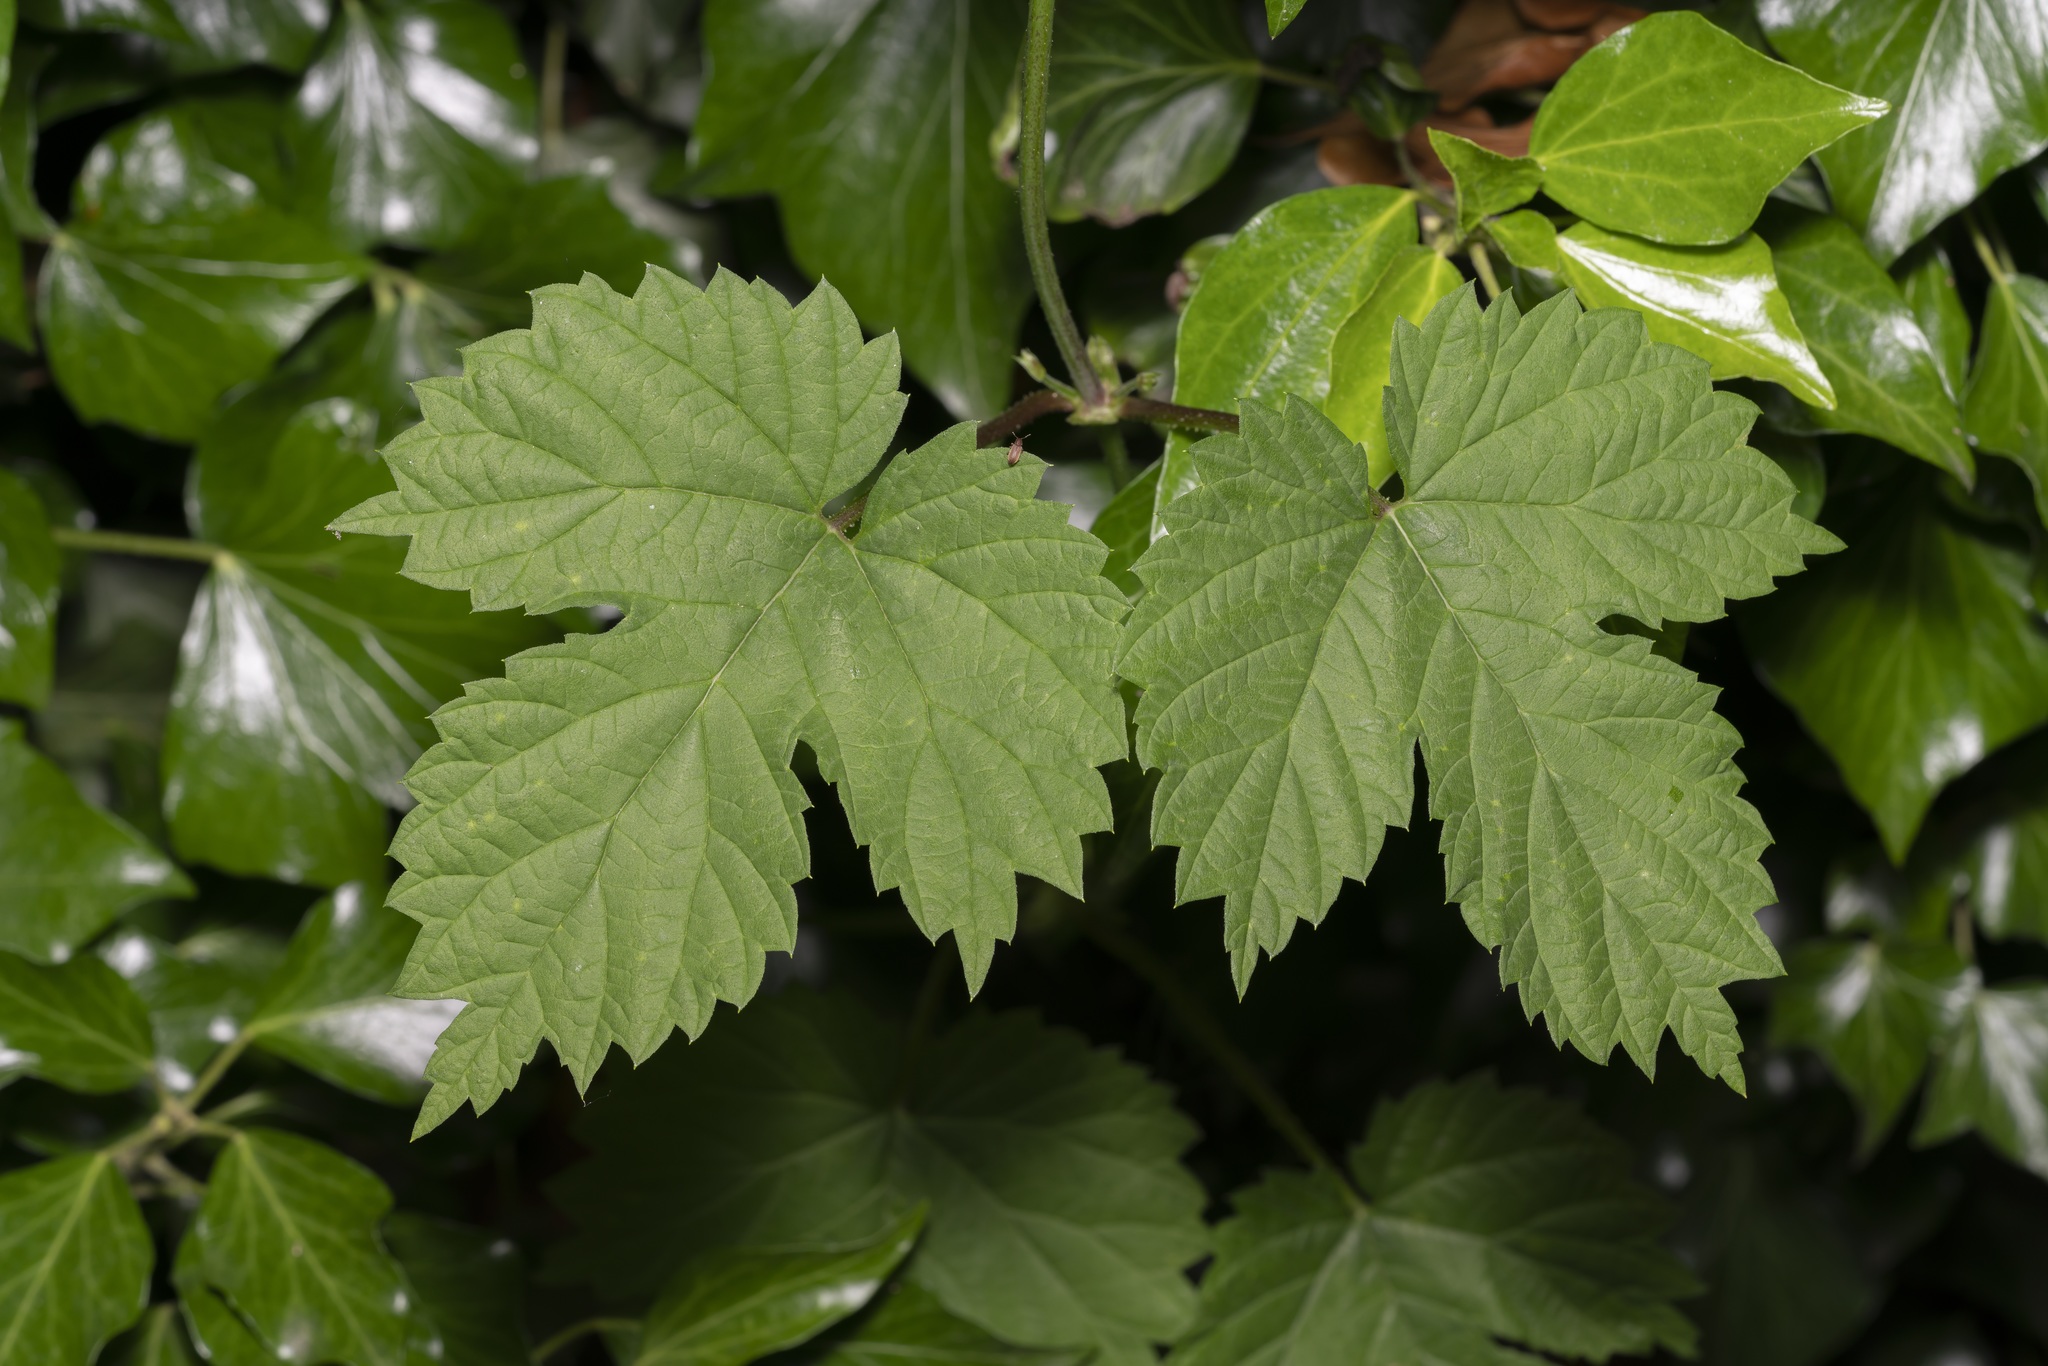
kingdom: Plantae
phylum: Tracheophyta
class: Magnoliopsida
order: Rosales
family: Cannabaceae
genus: Humulus
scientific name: Humulus lupulus
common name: Hop
